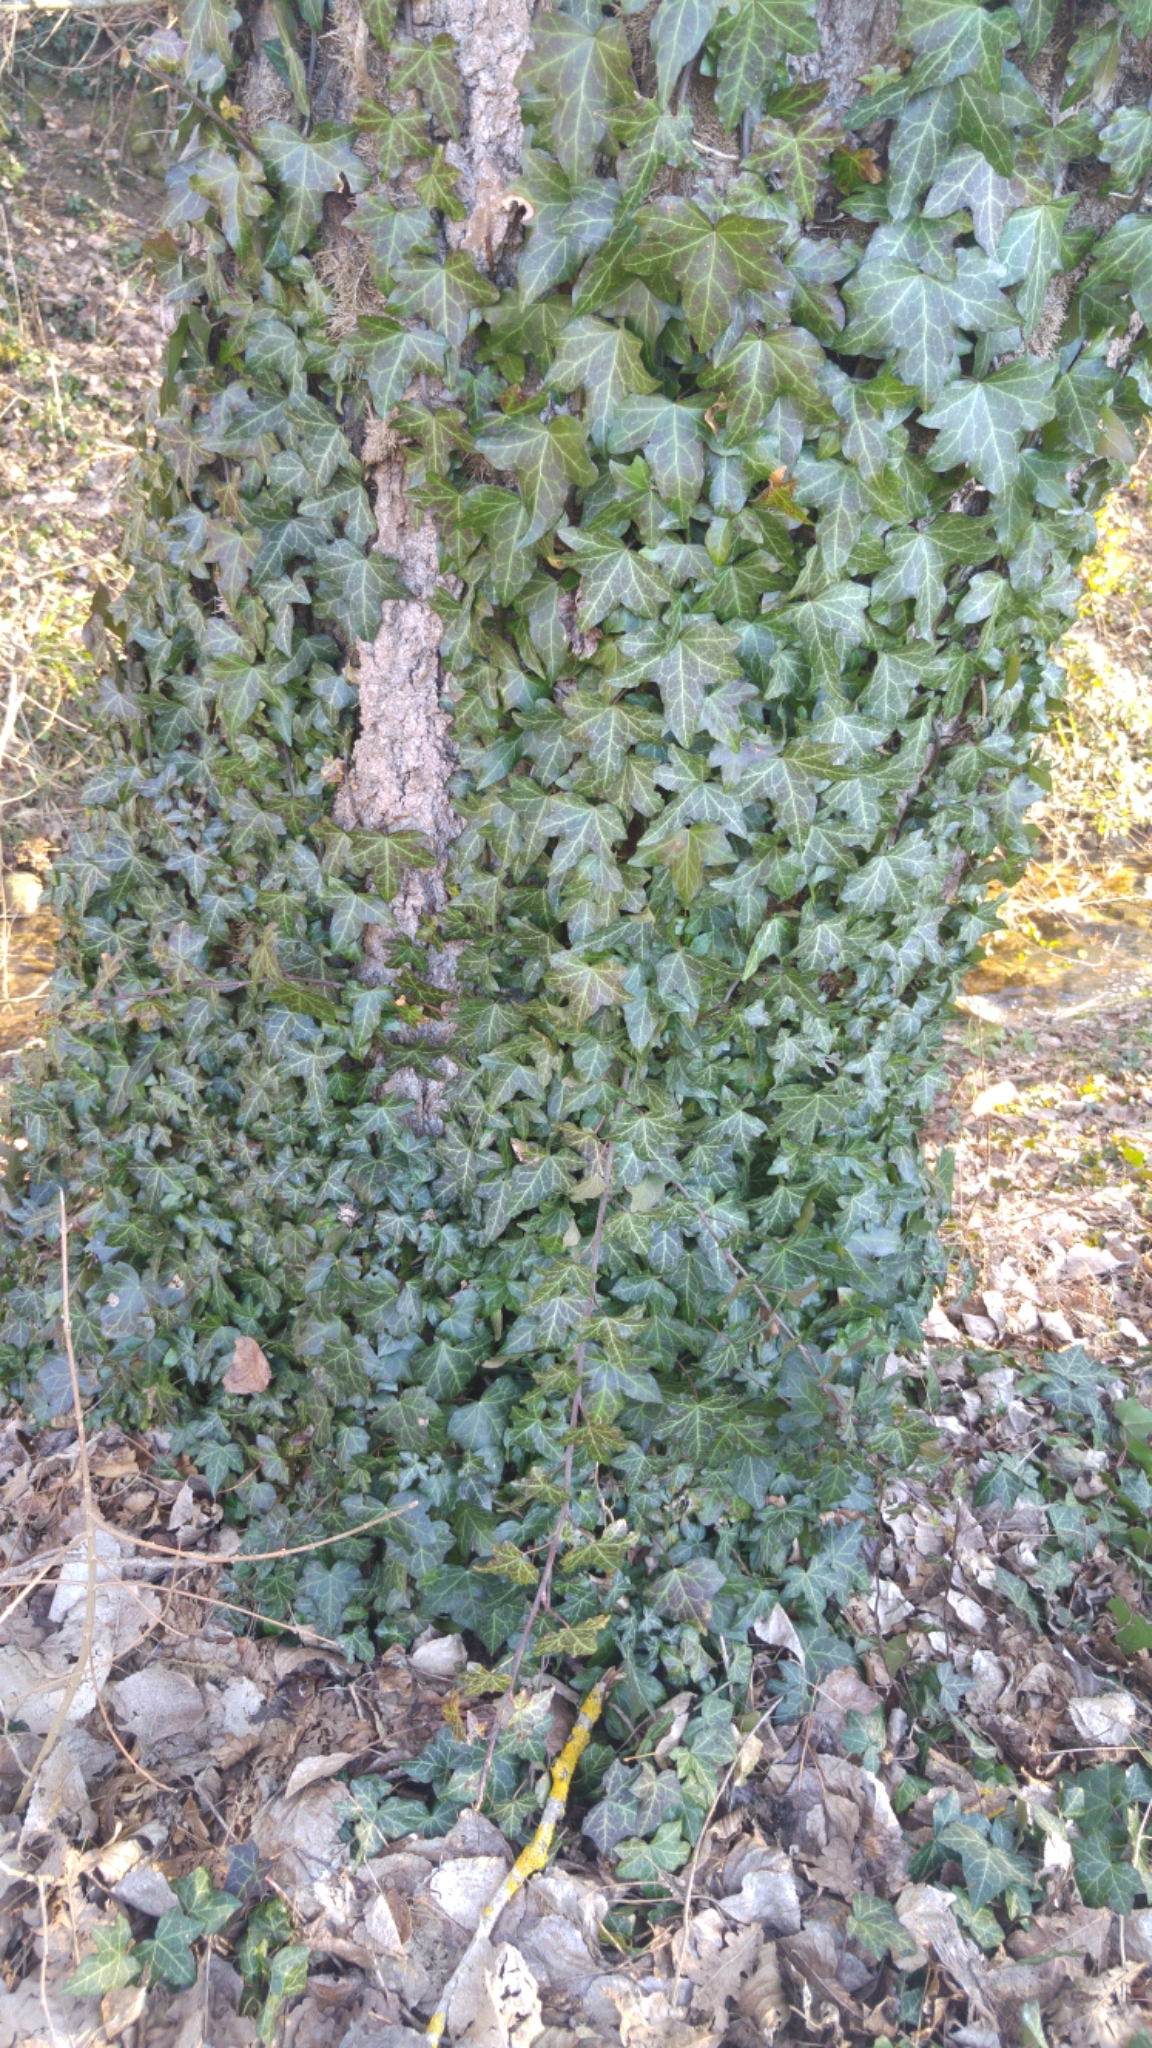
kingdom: Plantae
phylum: Tracheophyta
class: Magnoliopsida
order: Apiales
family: Araliaceae
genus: Hedera
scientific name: Hedera helix
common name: Ivy
